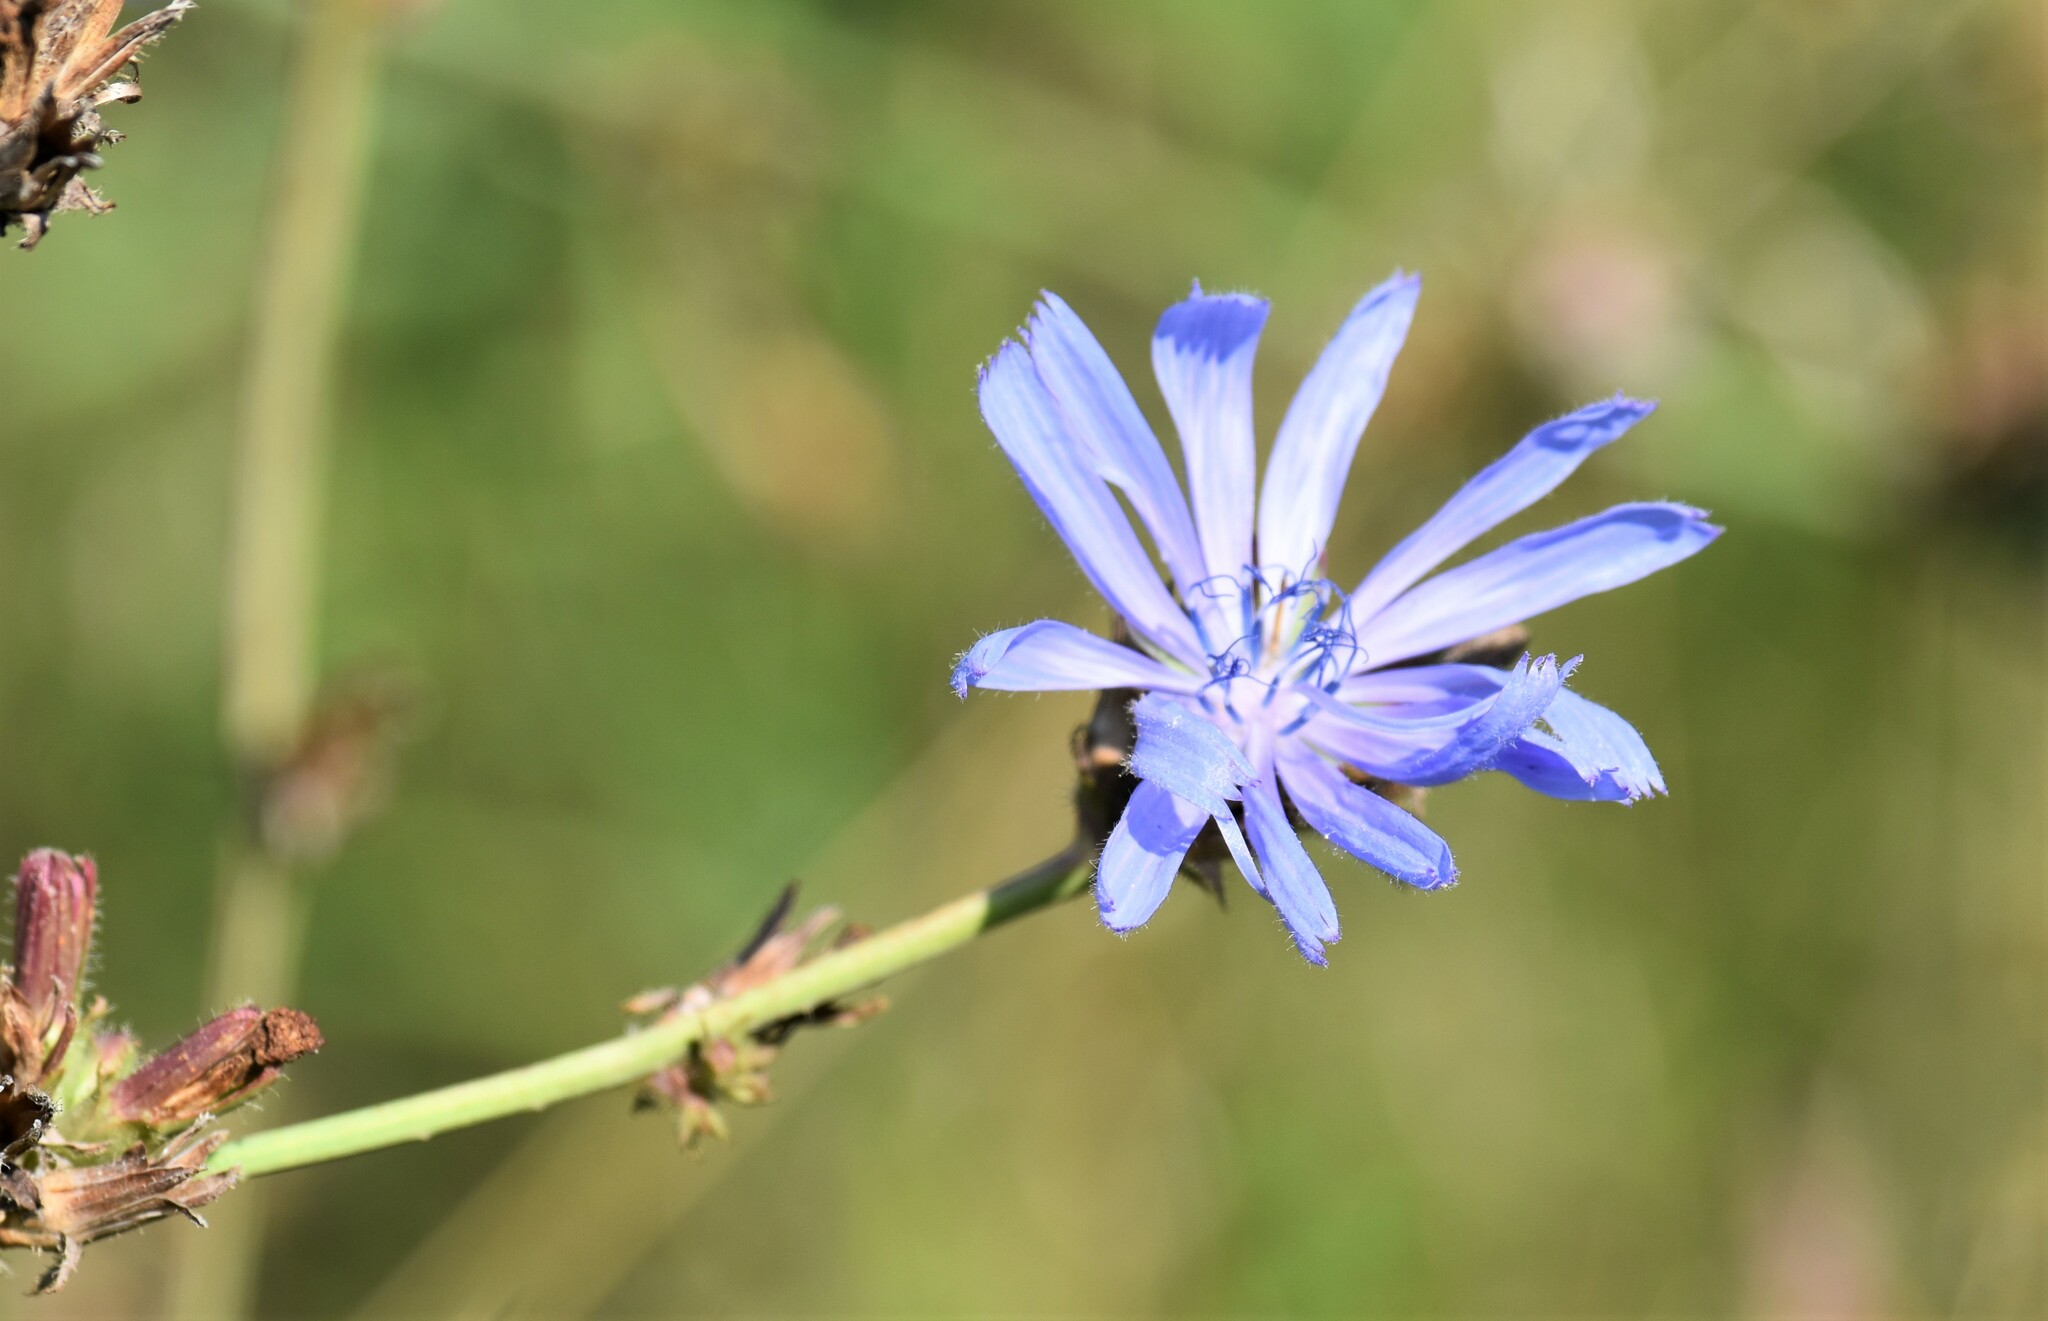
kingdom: Plantae
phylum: Tracheophyta
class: Magnoliopsida
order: Asterales
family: Asteraceae
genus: Cichorium
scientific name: Cichorium intybus
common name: Chicory
